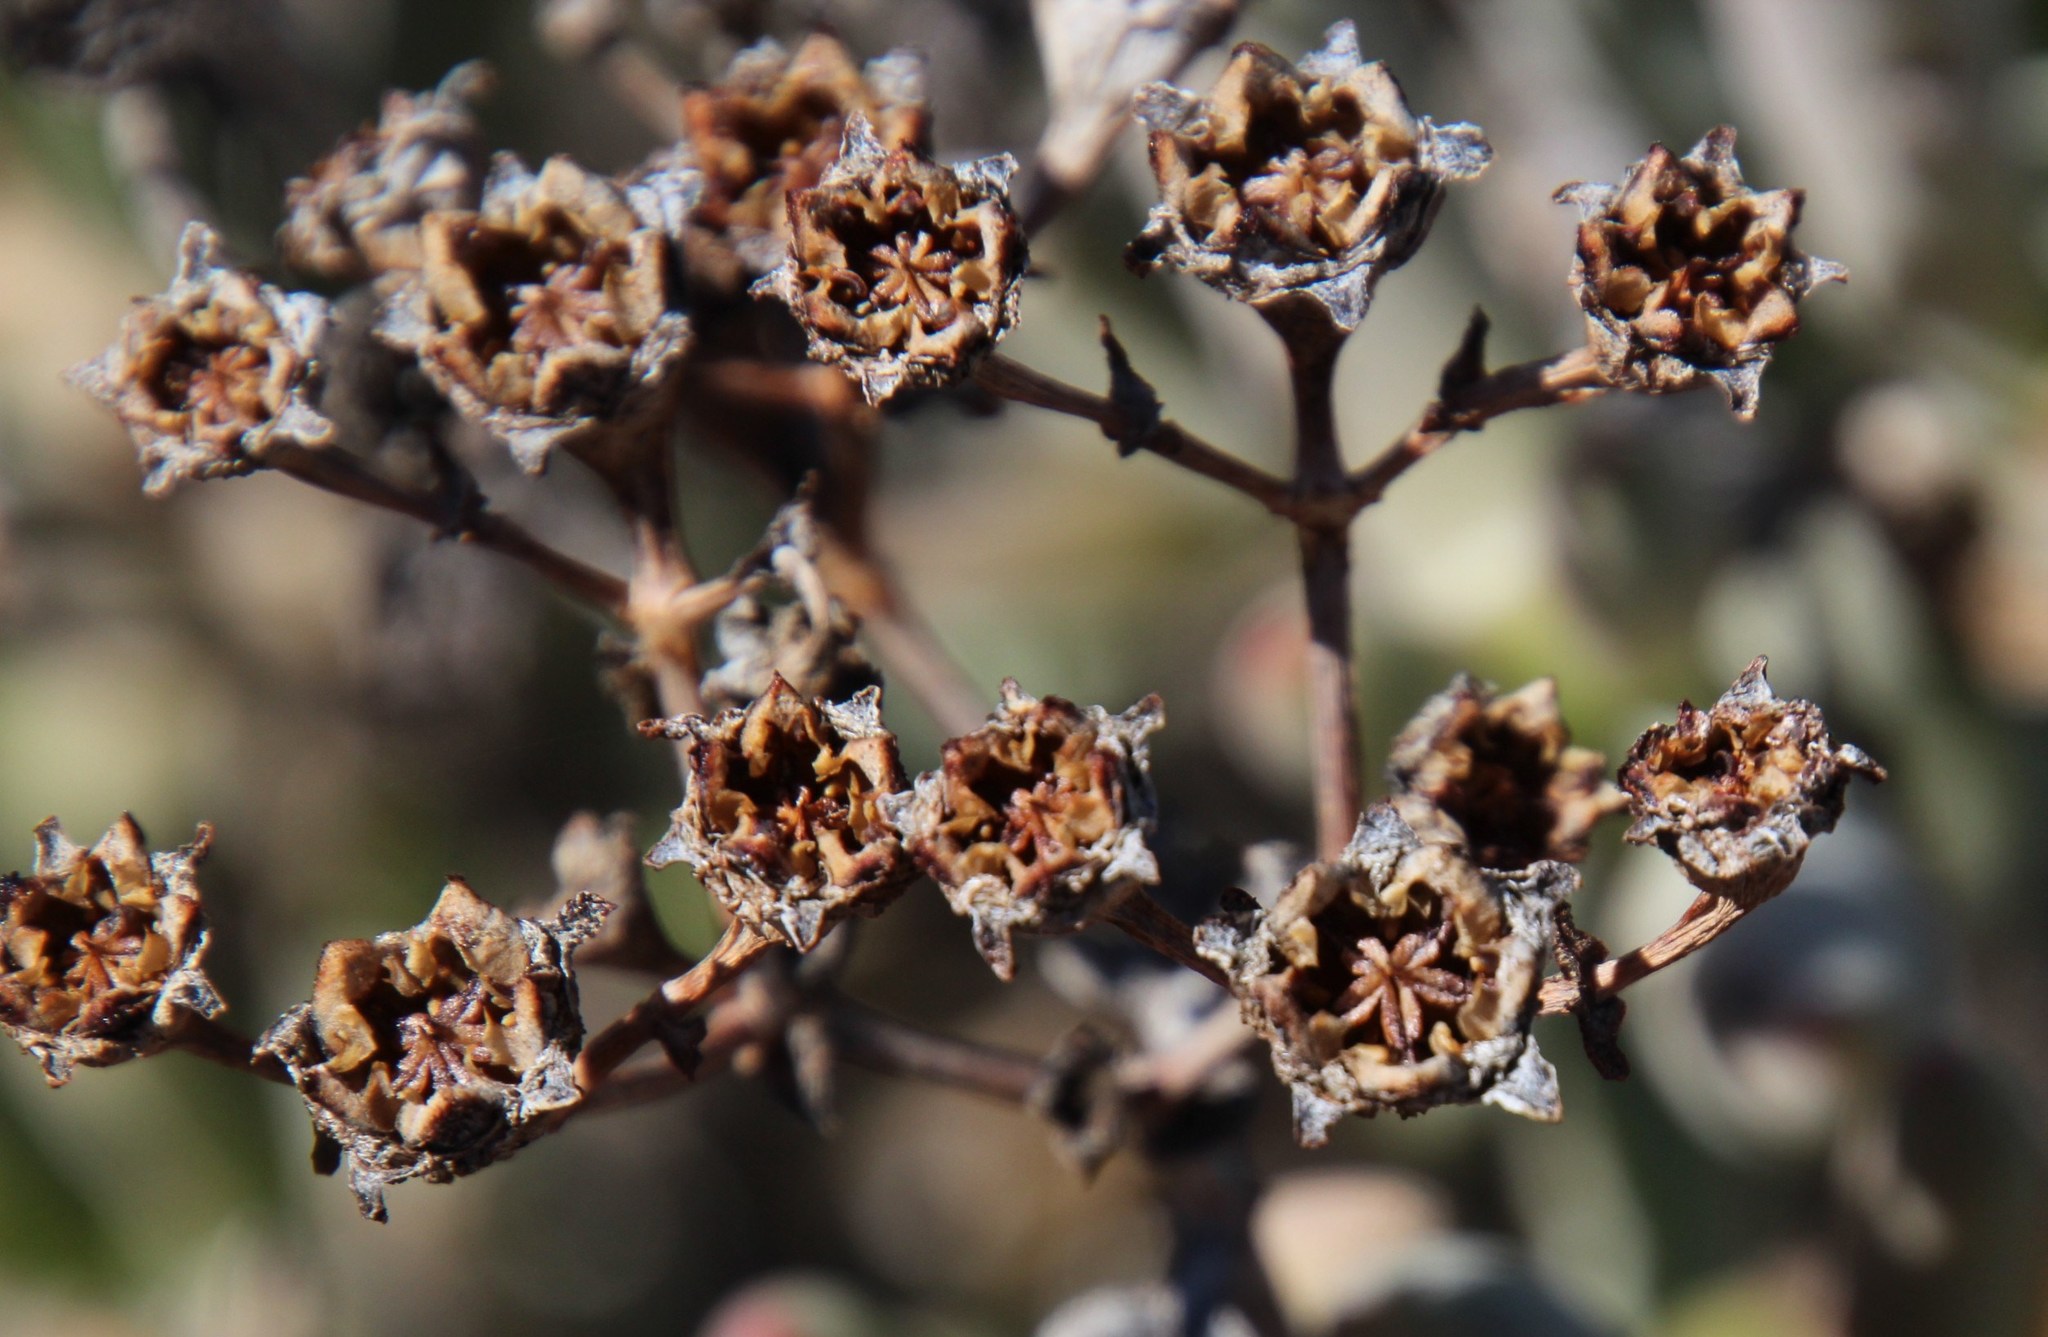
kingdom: Plantae
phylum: Tracheophyta
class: Magnoliopsida
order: Caryophyllales
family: Aizoaceae
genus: Stoeberia
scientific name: Stoeberia frutescens
